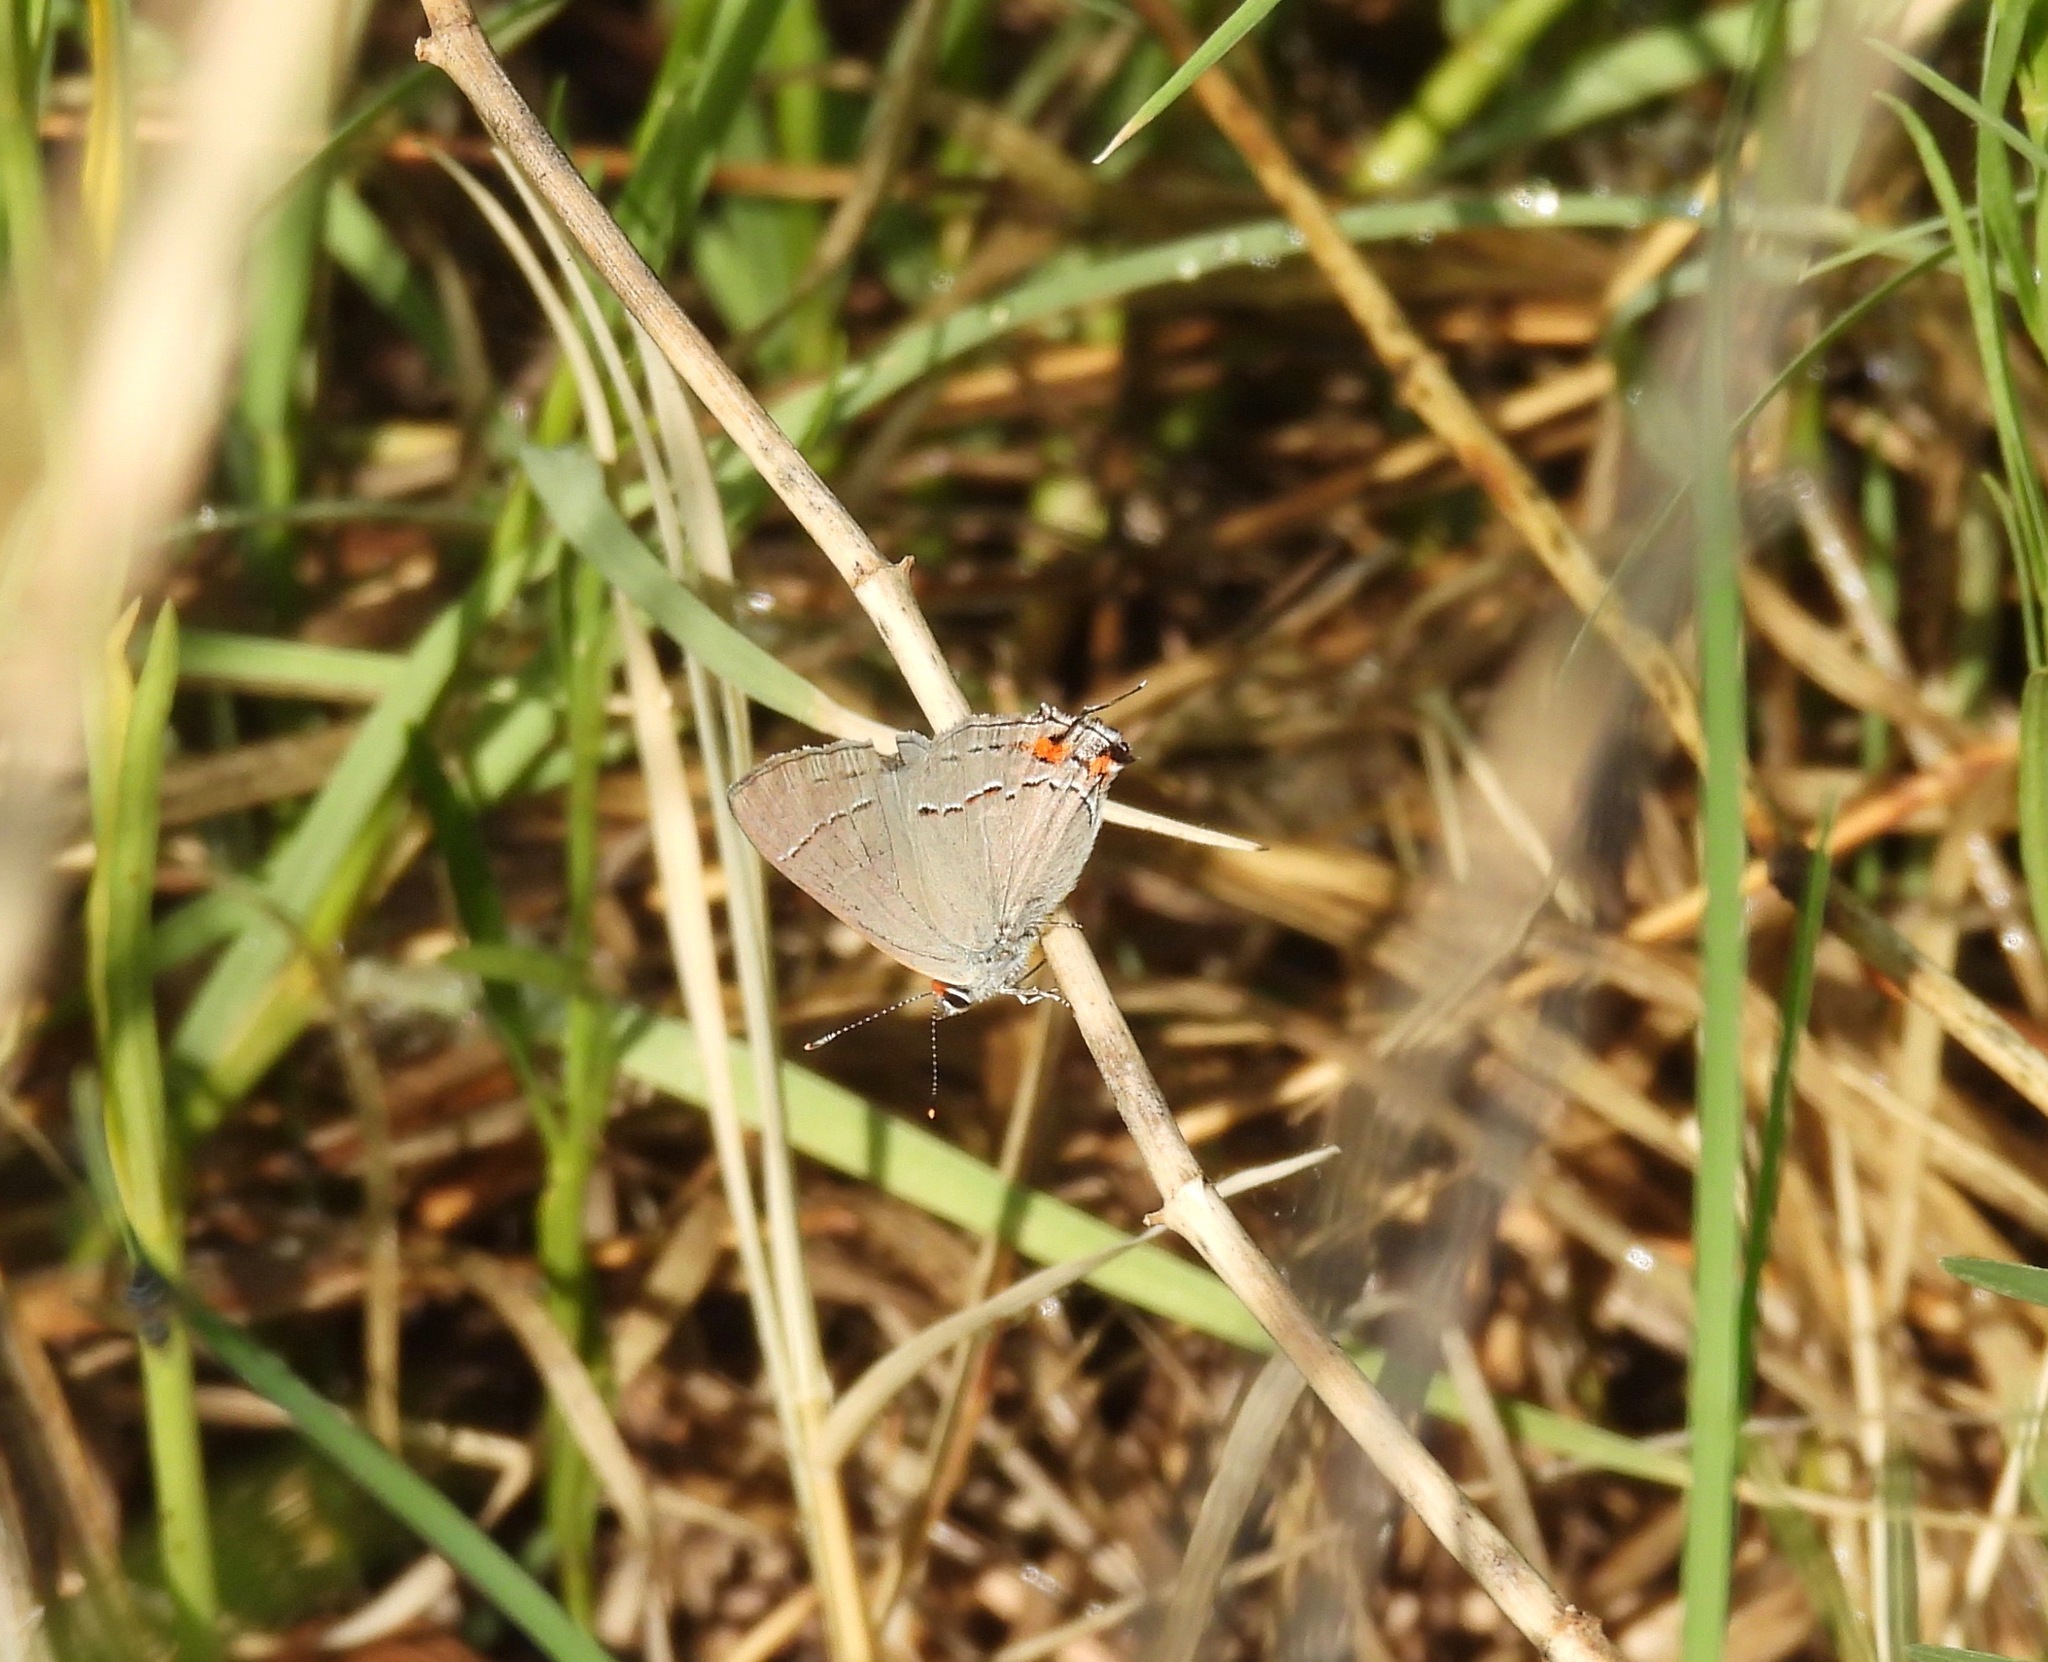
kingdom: Animalia
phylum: Arthropoda
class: Insecta
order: Lepidoptera
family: Lycaenidae
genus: Strymon
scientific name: Strymon melinus
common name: Gray hairstreak
